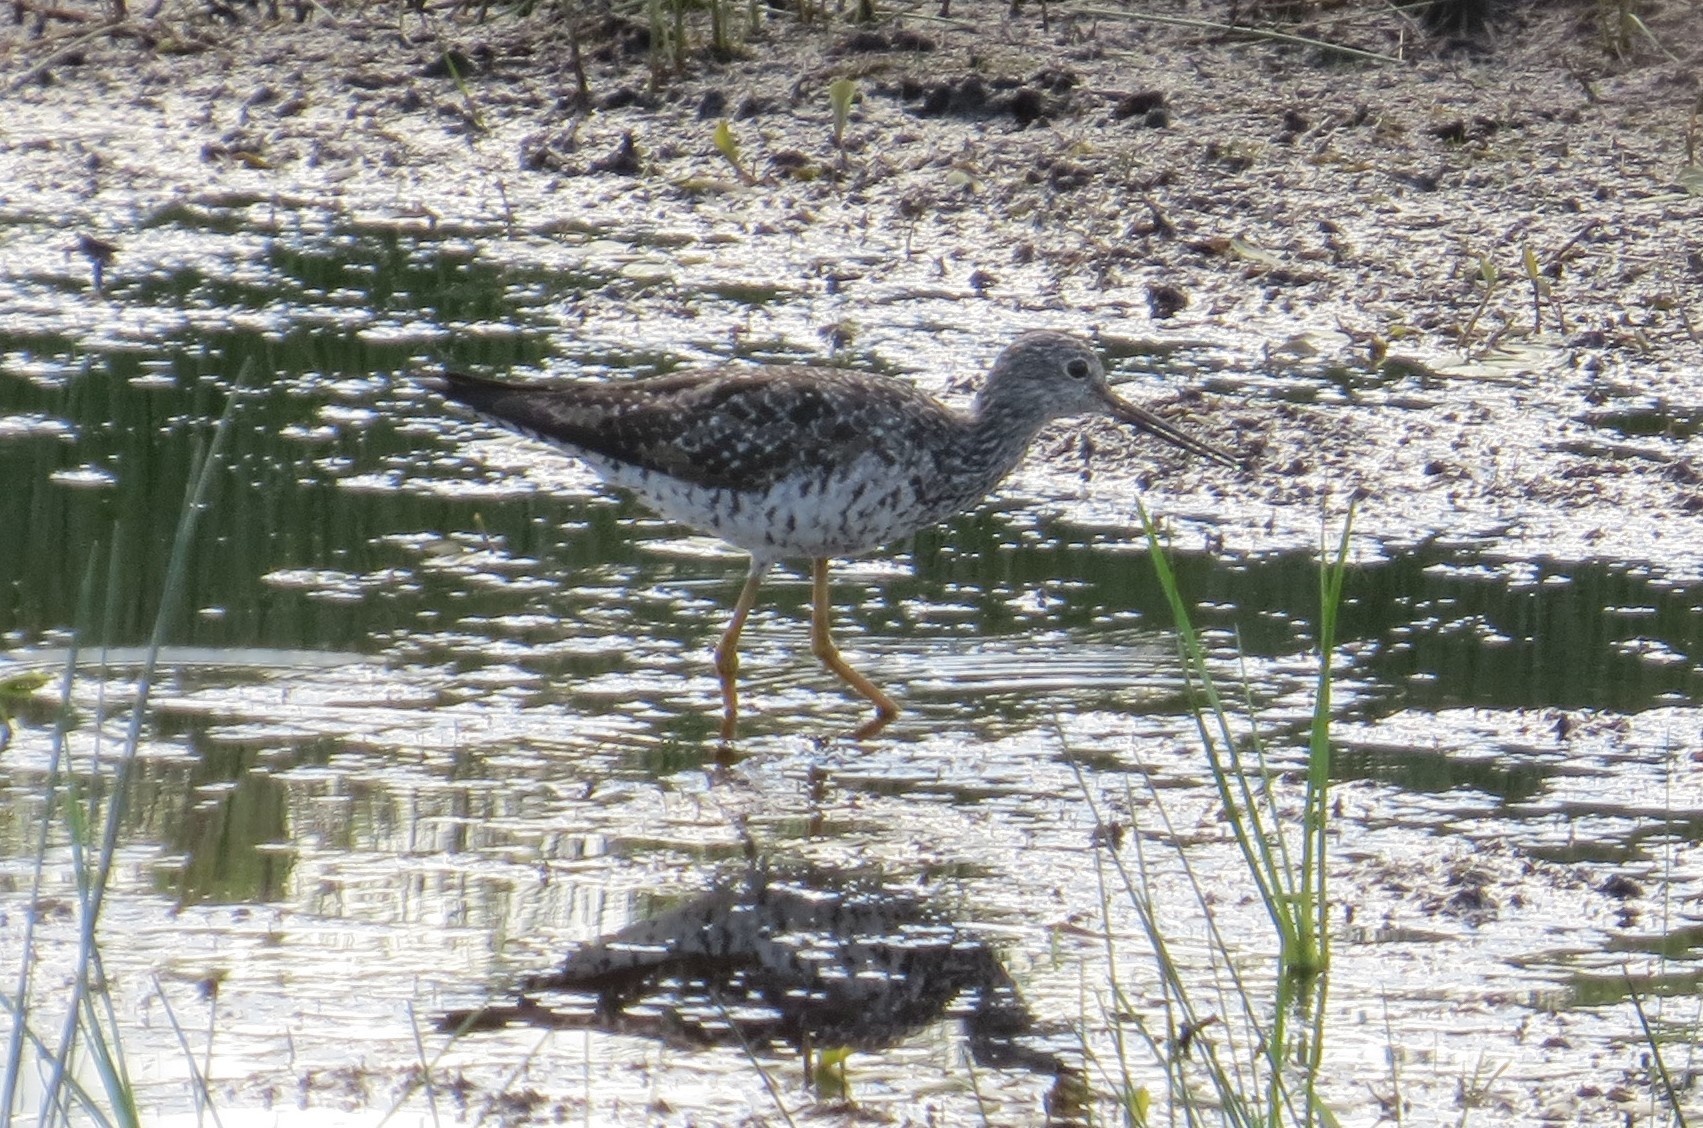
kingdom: Animalia
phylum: Chordata
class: Aves
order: Charadriiformes
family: Scolopacidae
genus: Tringa
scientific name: Tringa melanoleuca
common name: Greater yellowlegs
